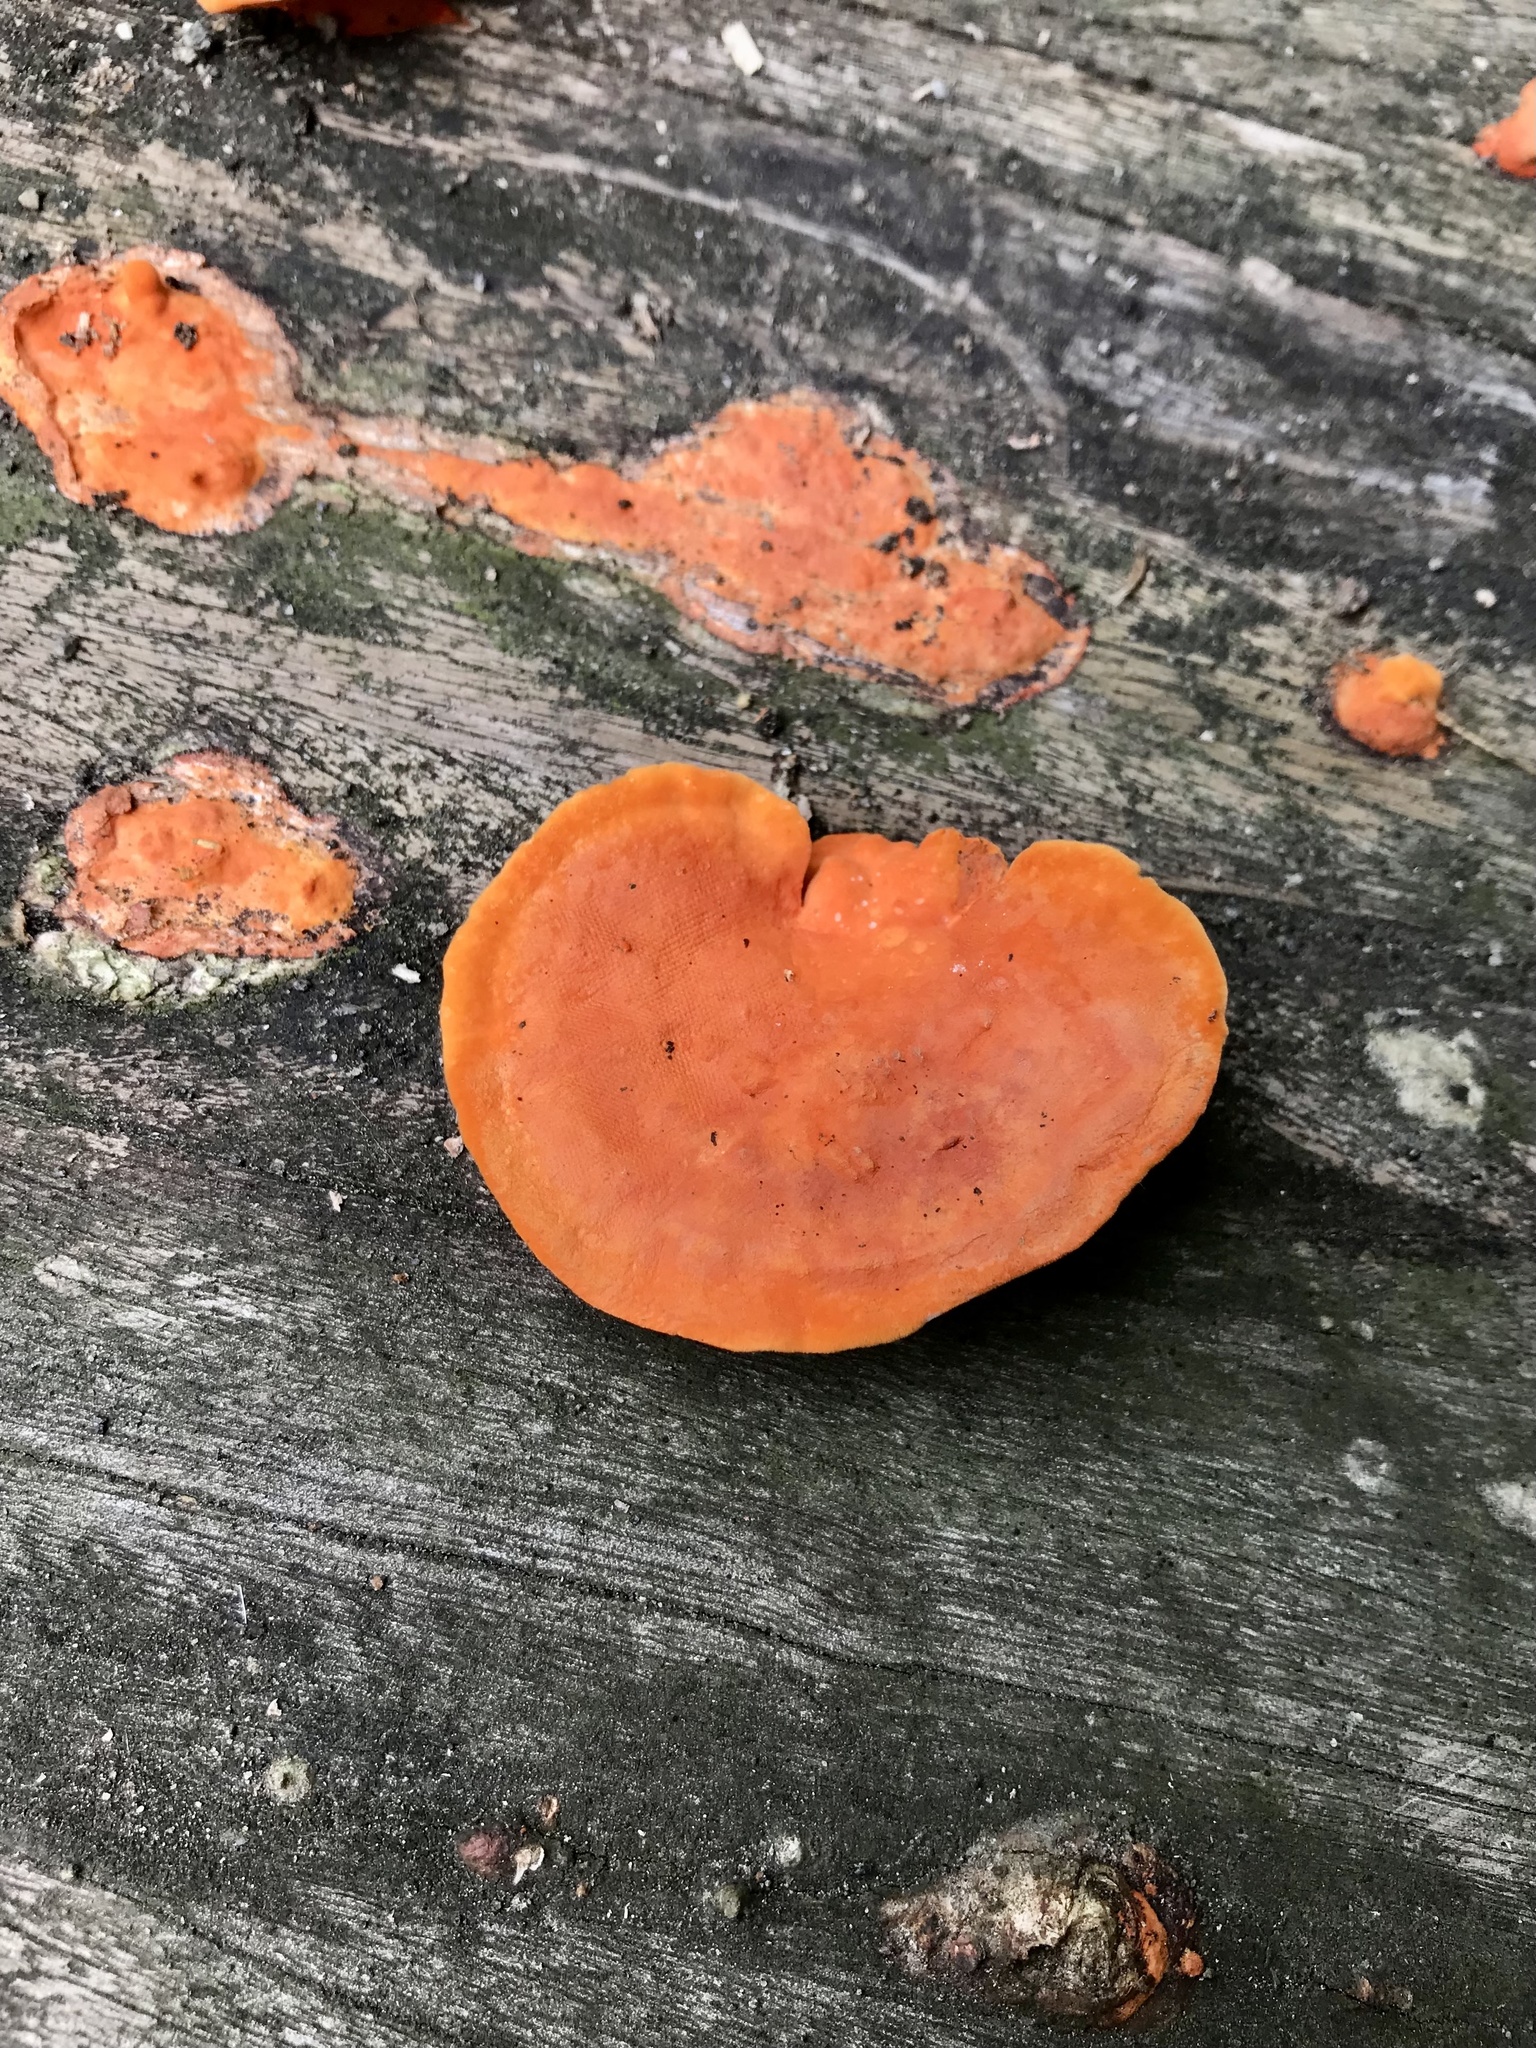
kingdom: Fungi
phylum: Basidiomycota
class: Agaricomycetes
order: Polyporales
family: Polyporaceae
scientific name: Polyporaceae
